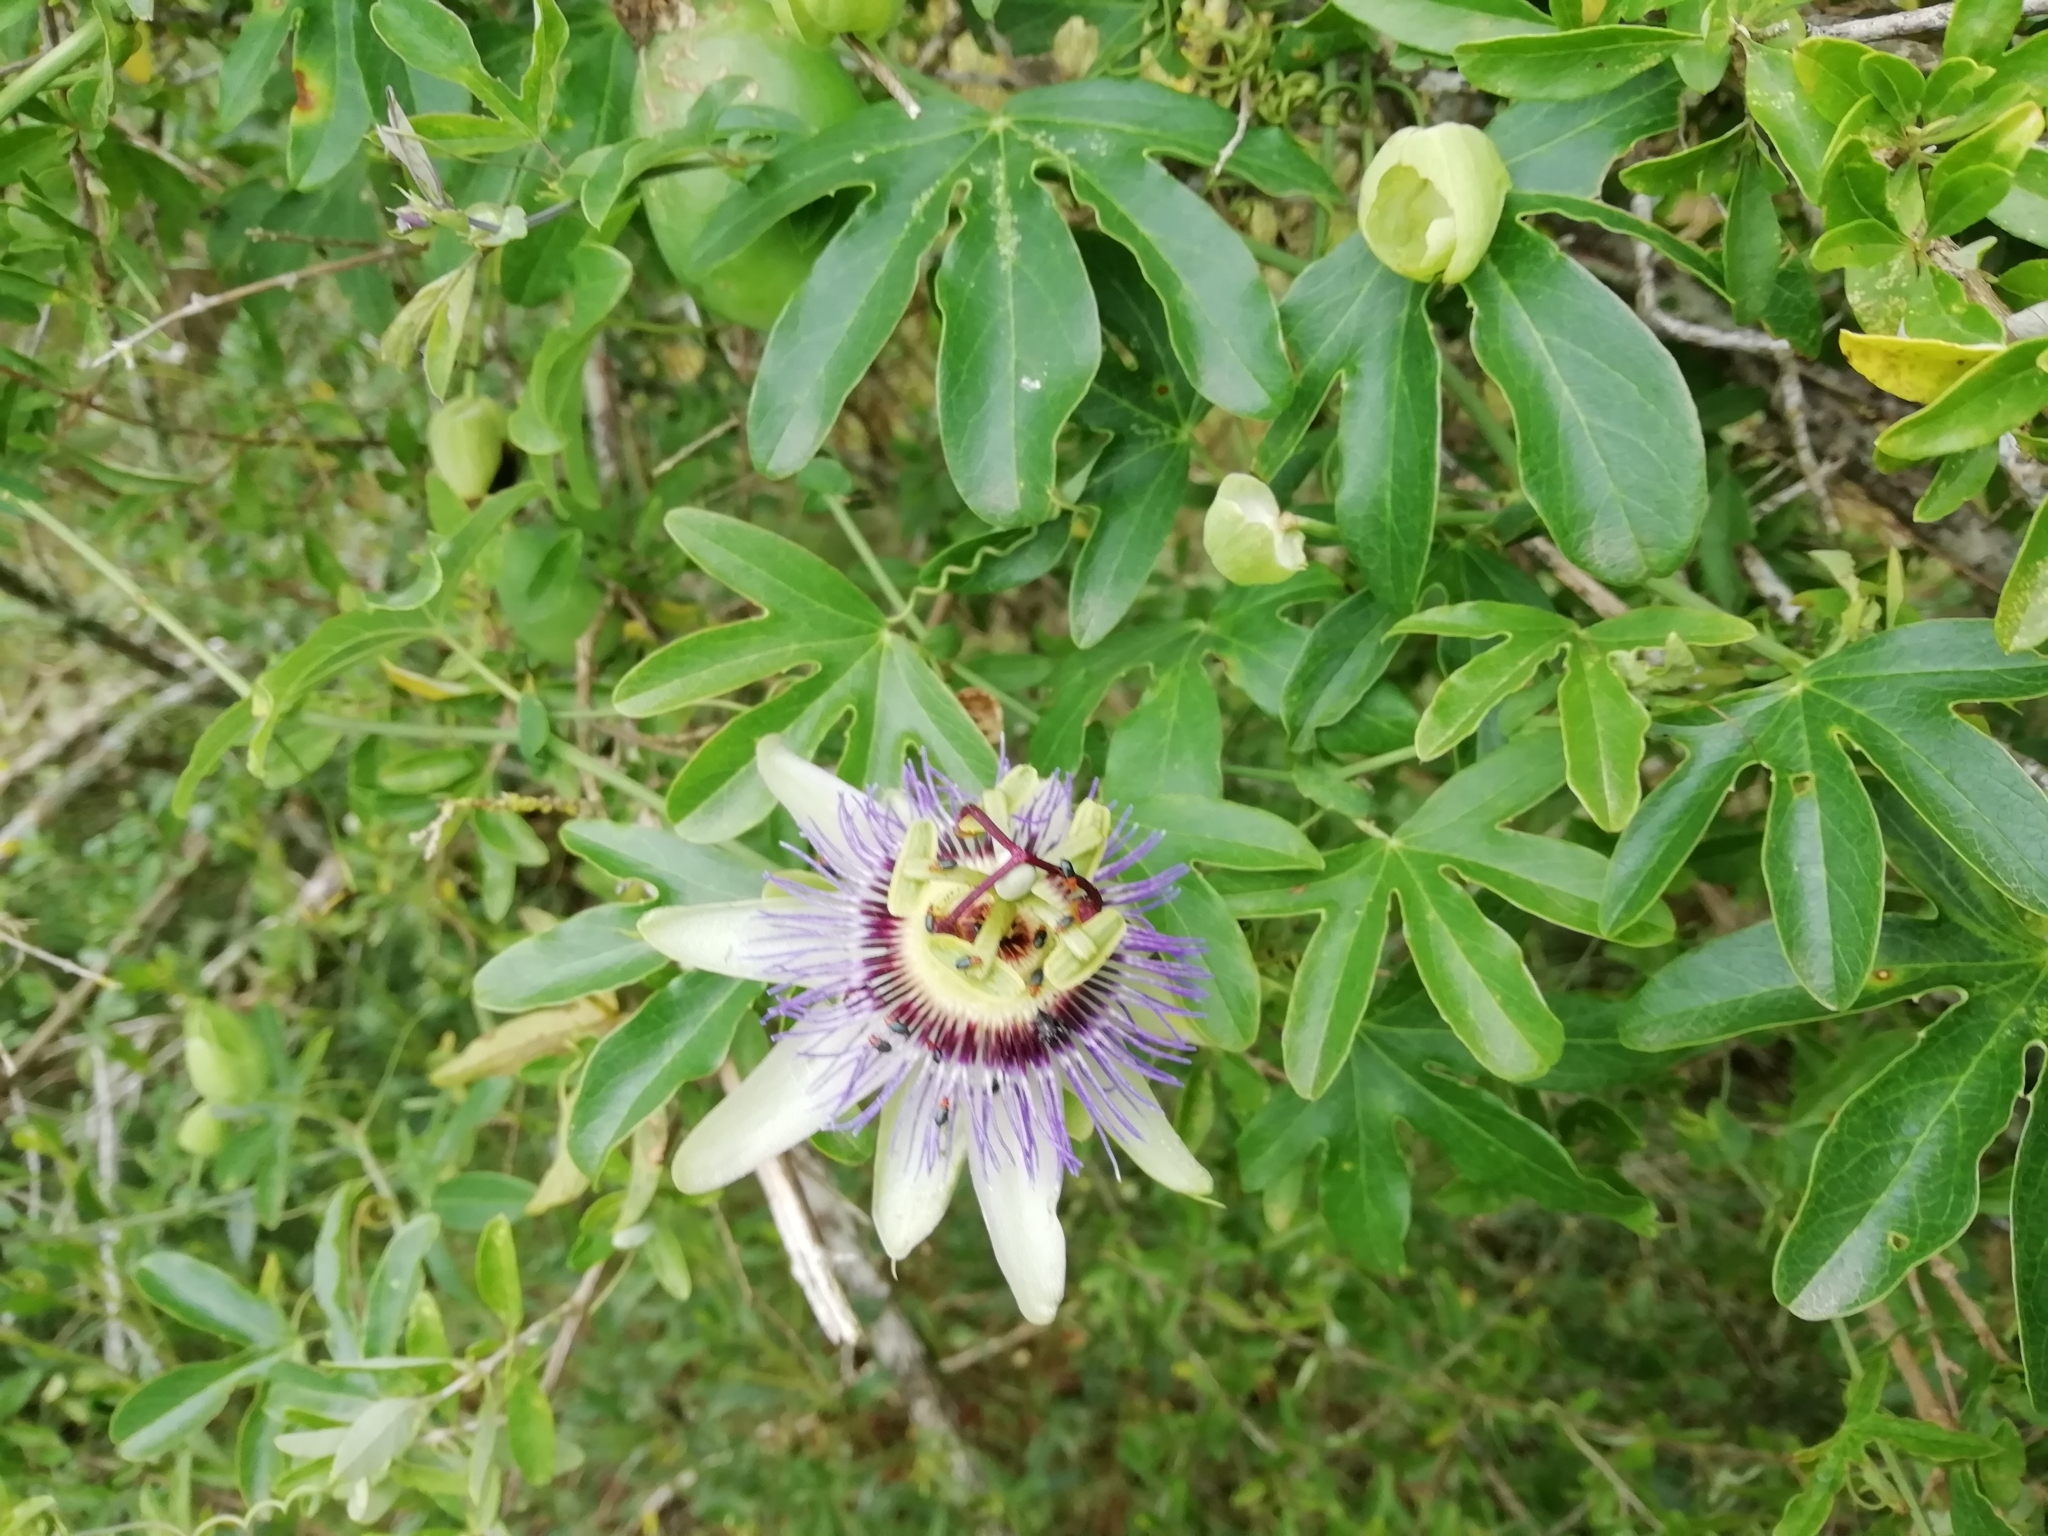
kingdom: Plantae
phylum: Tracheophyta
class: Magnoliopsida
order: Malpighiales
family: Passifloraceae
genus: Passiflora
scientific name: Passiflora caerulea
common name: Blue passionflower
